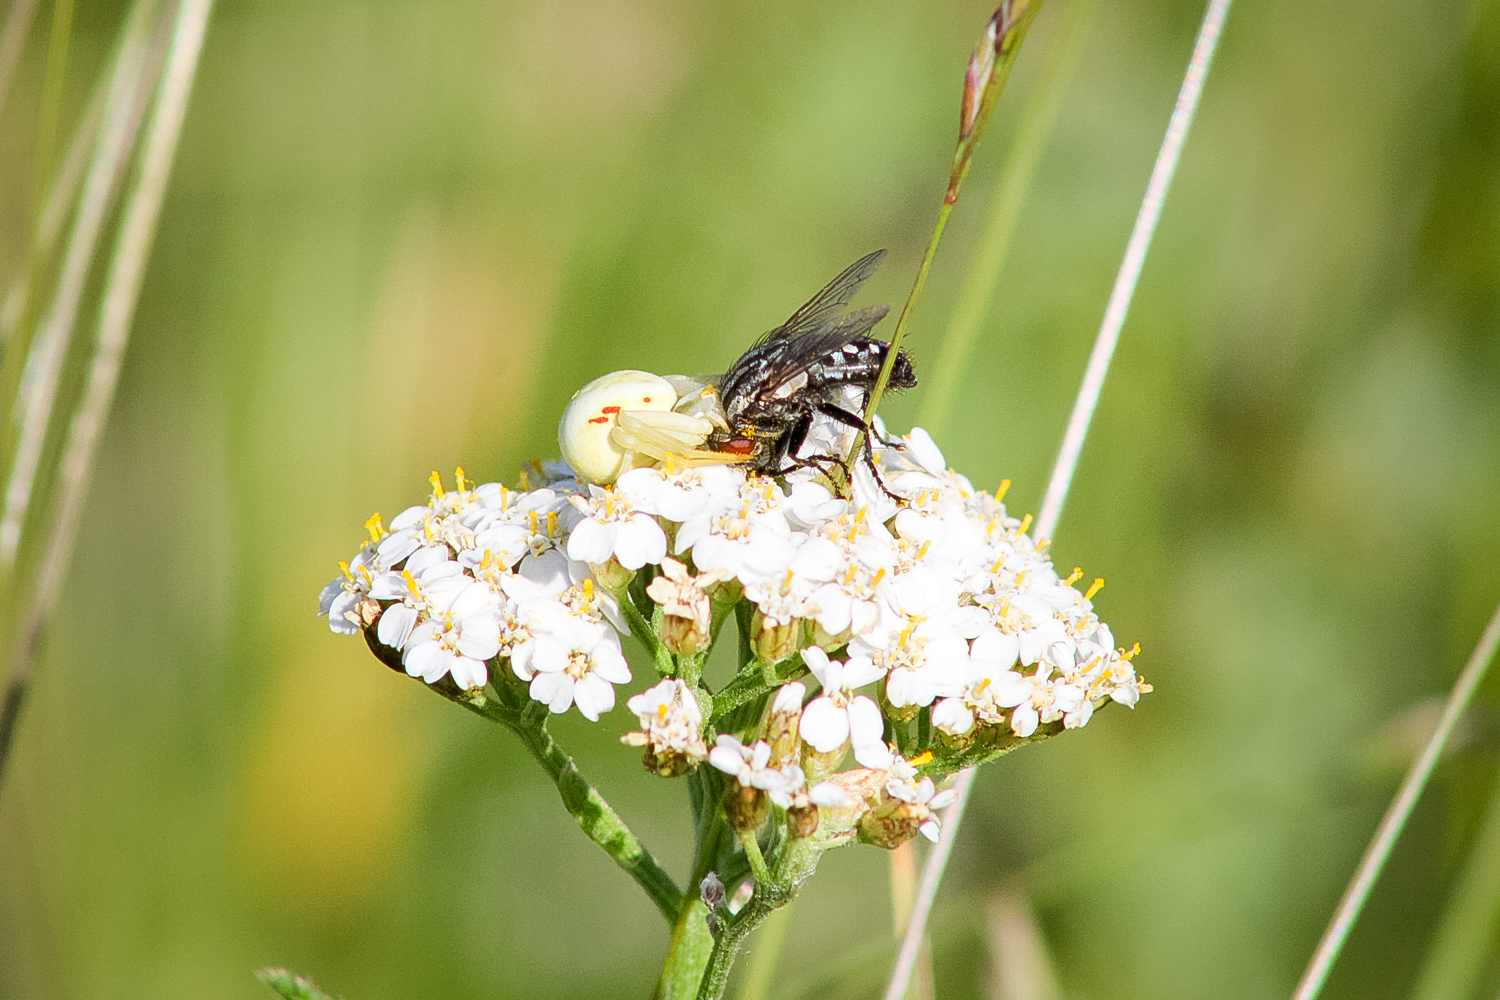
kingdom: Animalia
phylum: Arthropoda
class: Arachnida
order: Araneae
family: Thomisidae
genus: Misumena
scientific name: Misumena vatia
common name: Goldenrod crab spider
